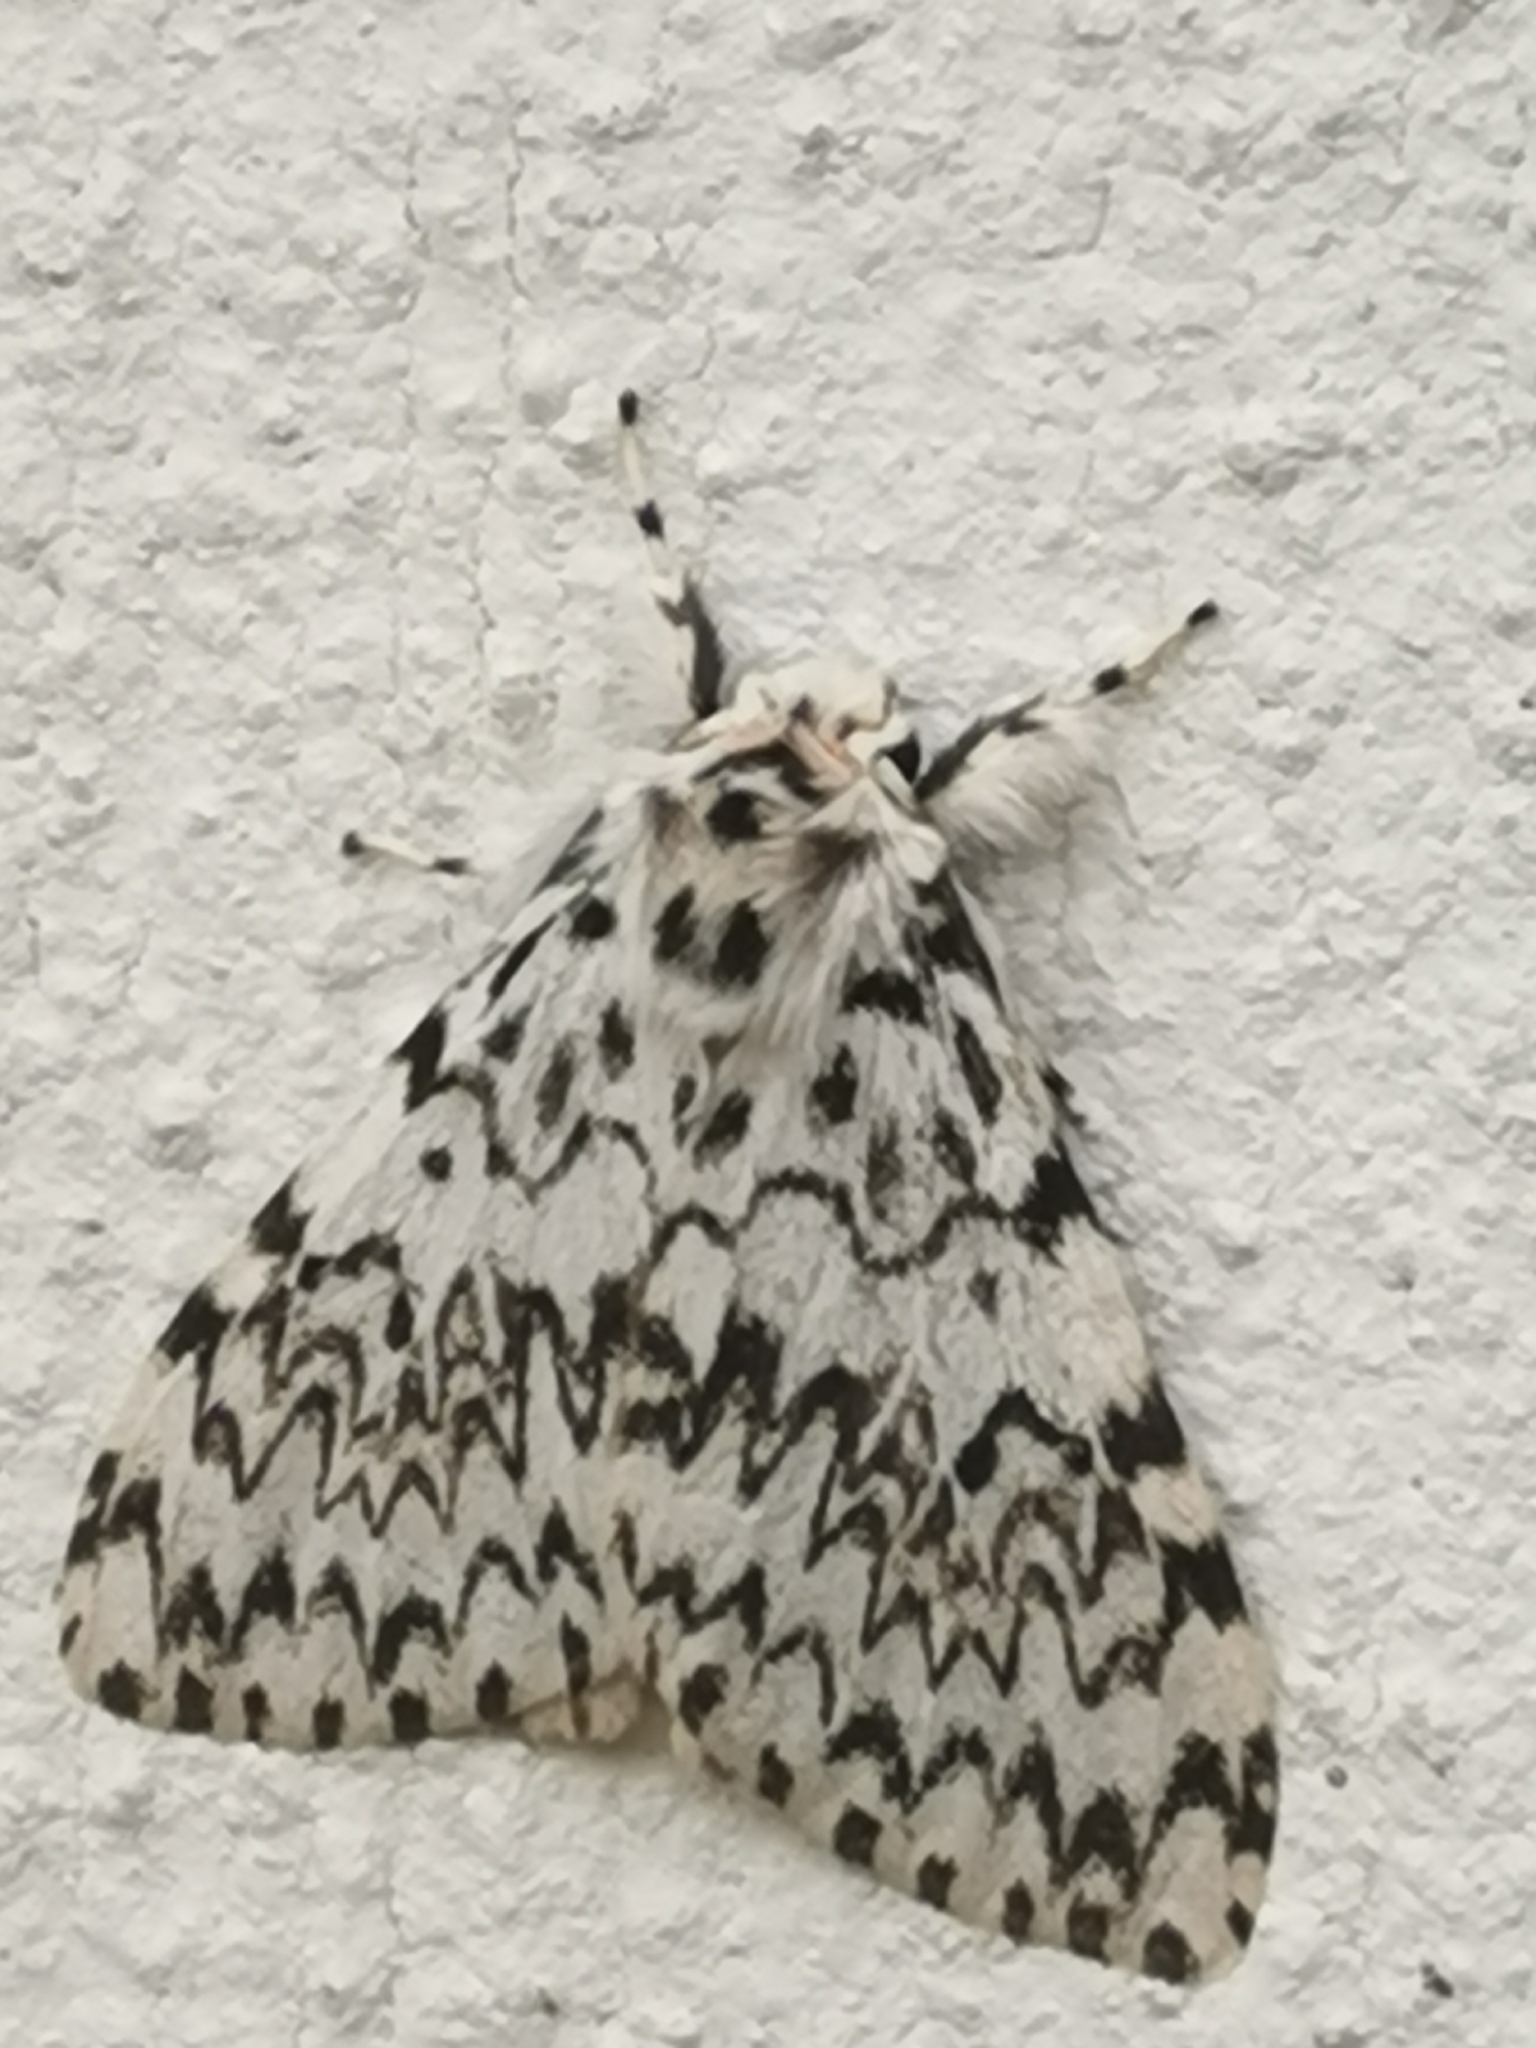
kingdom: Animalia
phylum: Arthropoda
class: Insecta
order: Lepidoptera
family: Erebidae
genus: Lymantria
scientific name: Lymantria monacha
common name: Black arches
